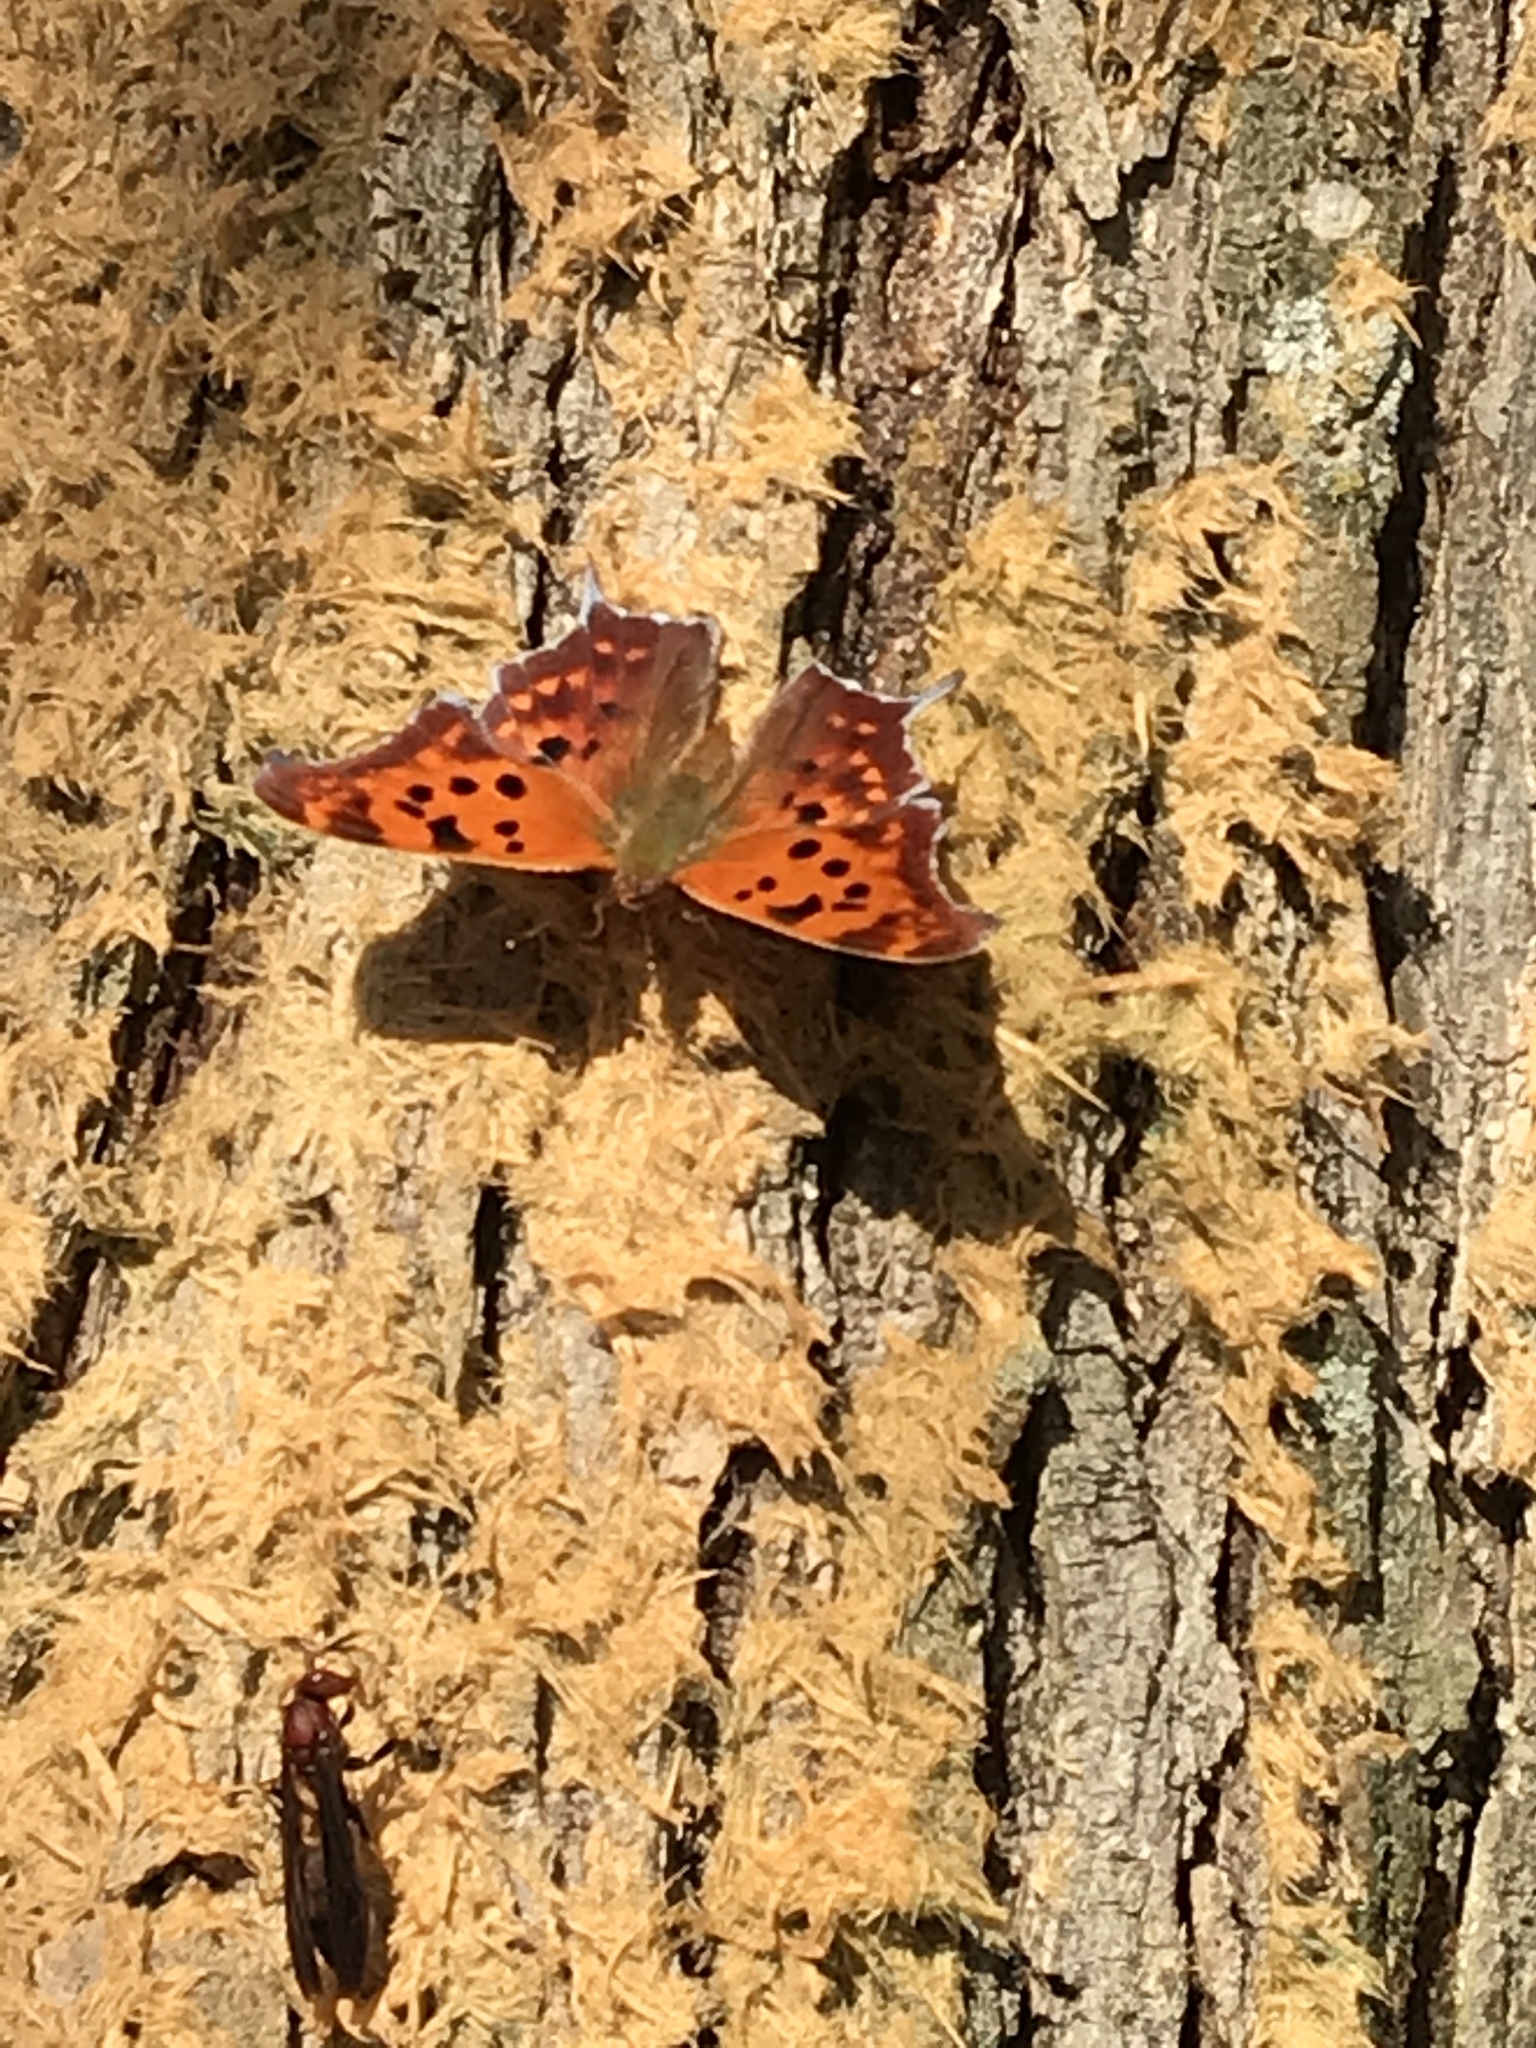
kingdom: Animalia
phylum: Arthropoda
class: Insecta
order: Lepidoptera
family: Nymphalidae
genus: Polygonia
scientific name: Polygonia interrogationis
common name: Question mark
